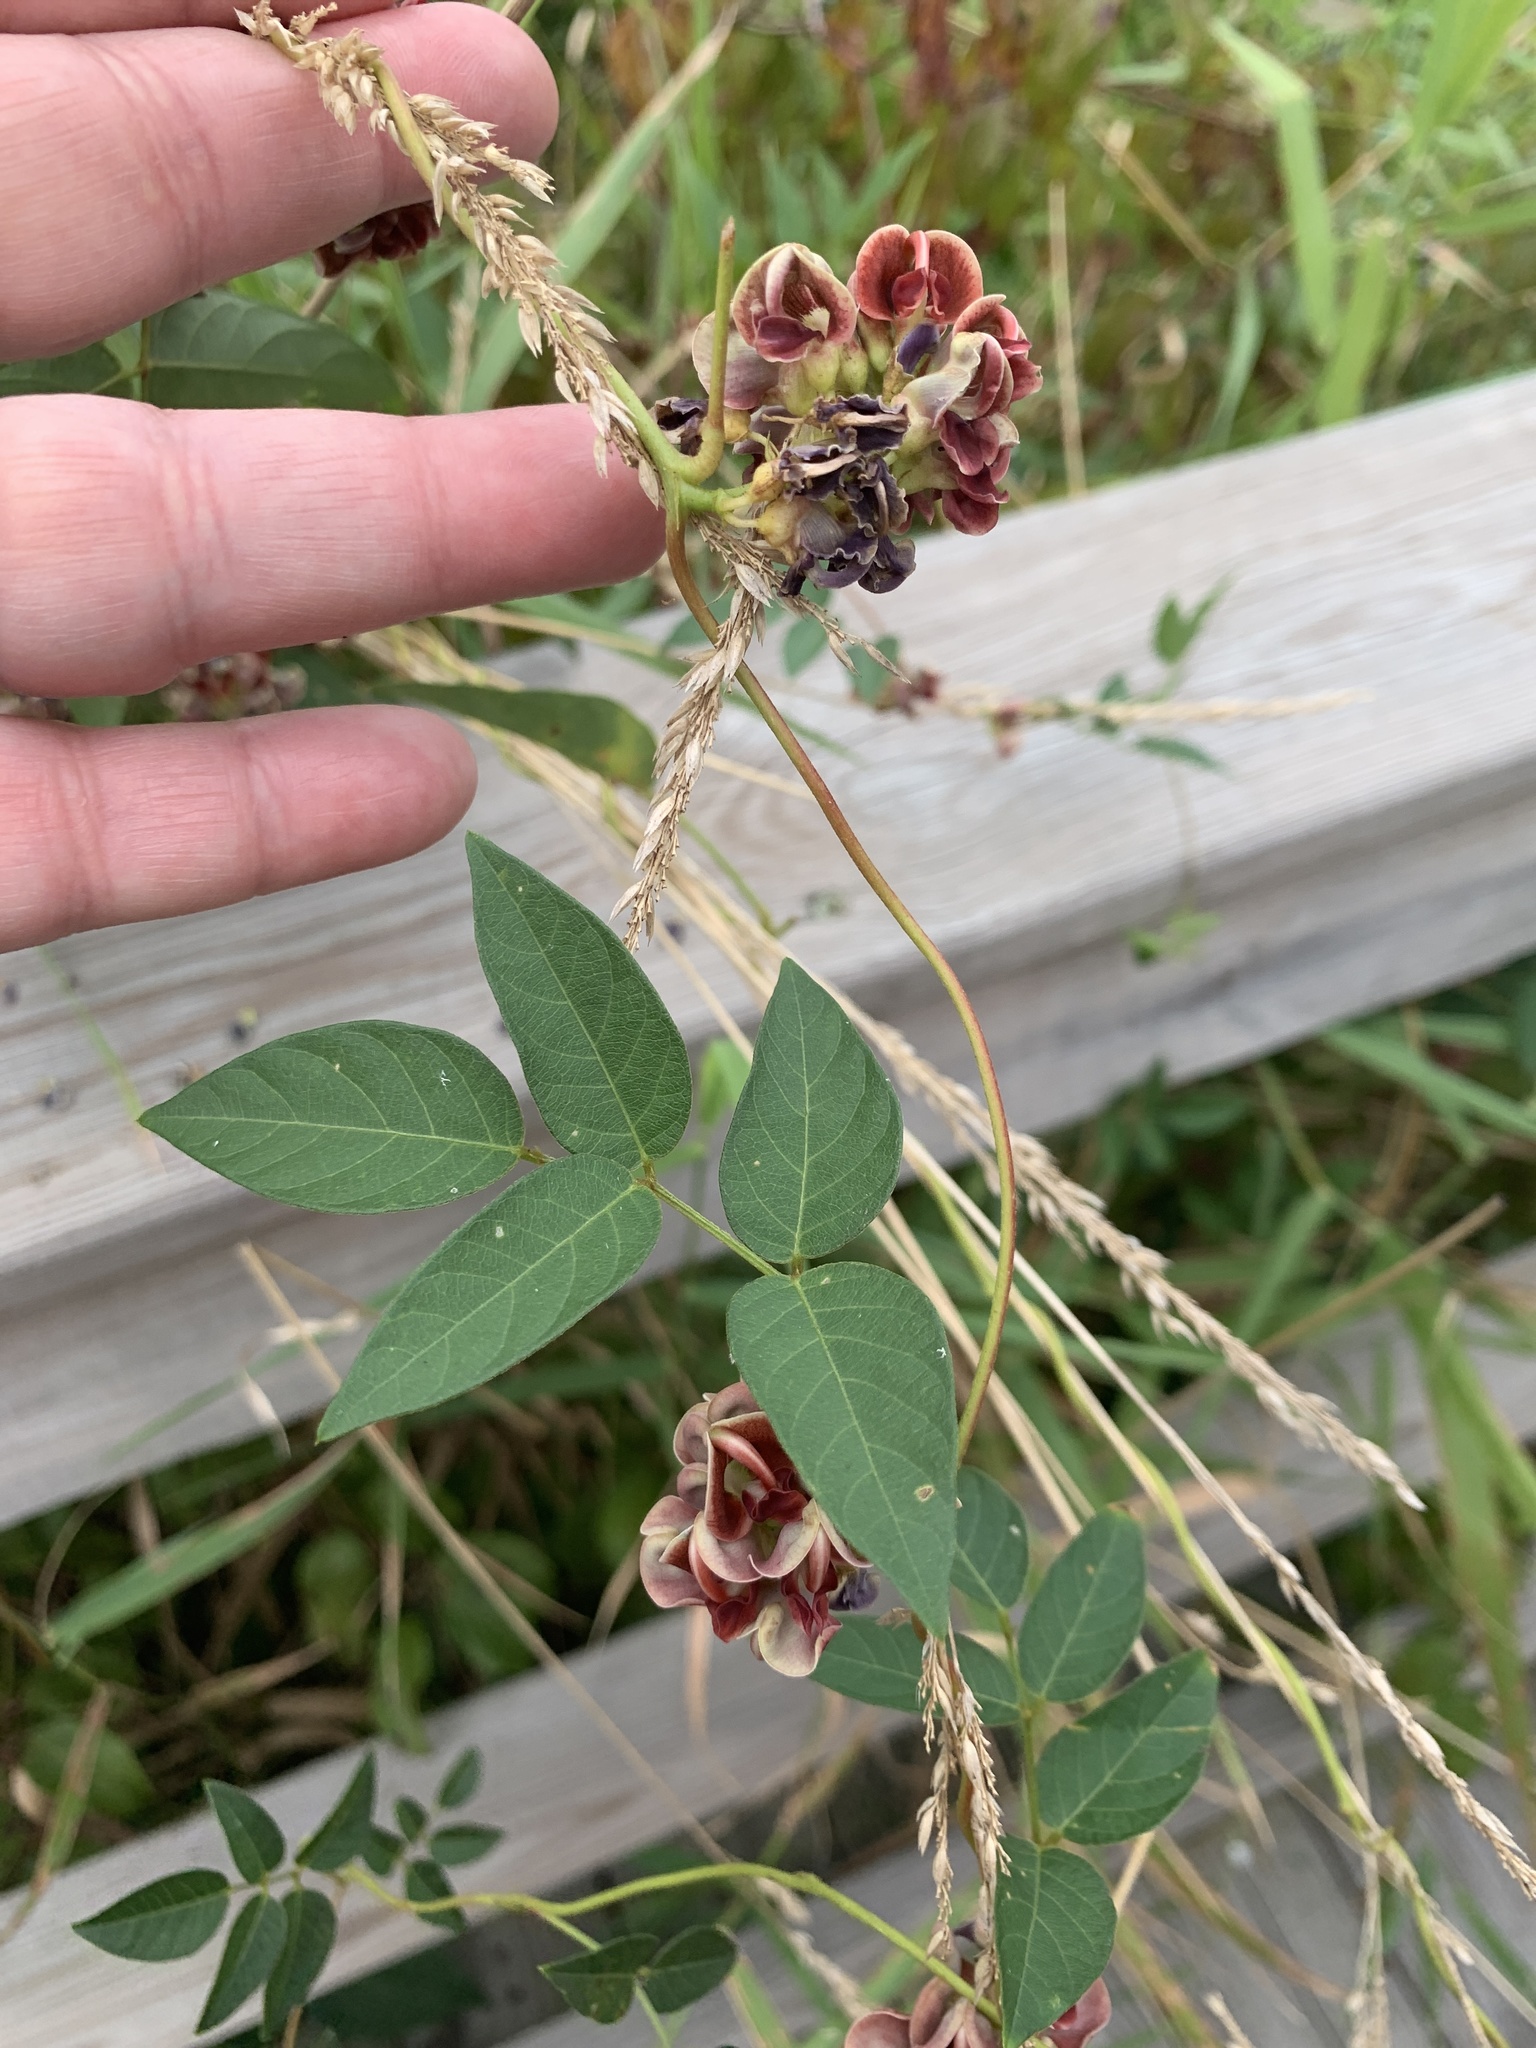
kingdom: Plantae
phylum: Tracheophyta
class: Magnoliopsida
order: Fabales
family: Fabaceae
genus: Apios
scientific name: Apios americana
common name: American potato-bean
